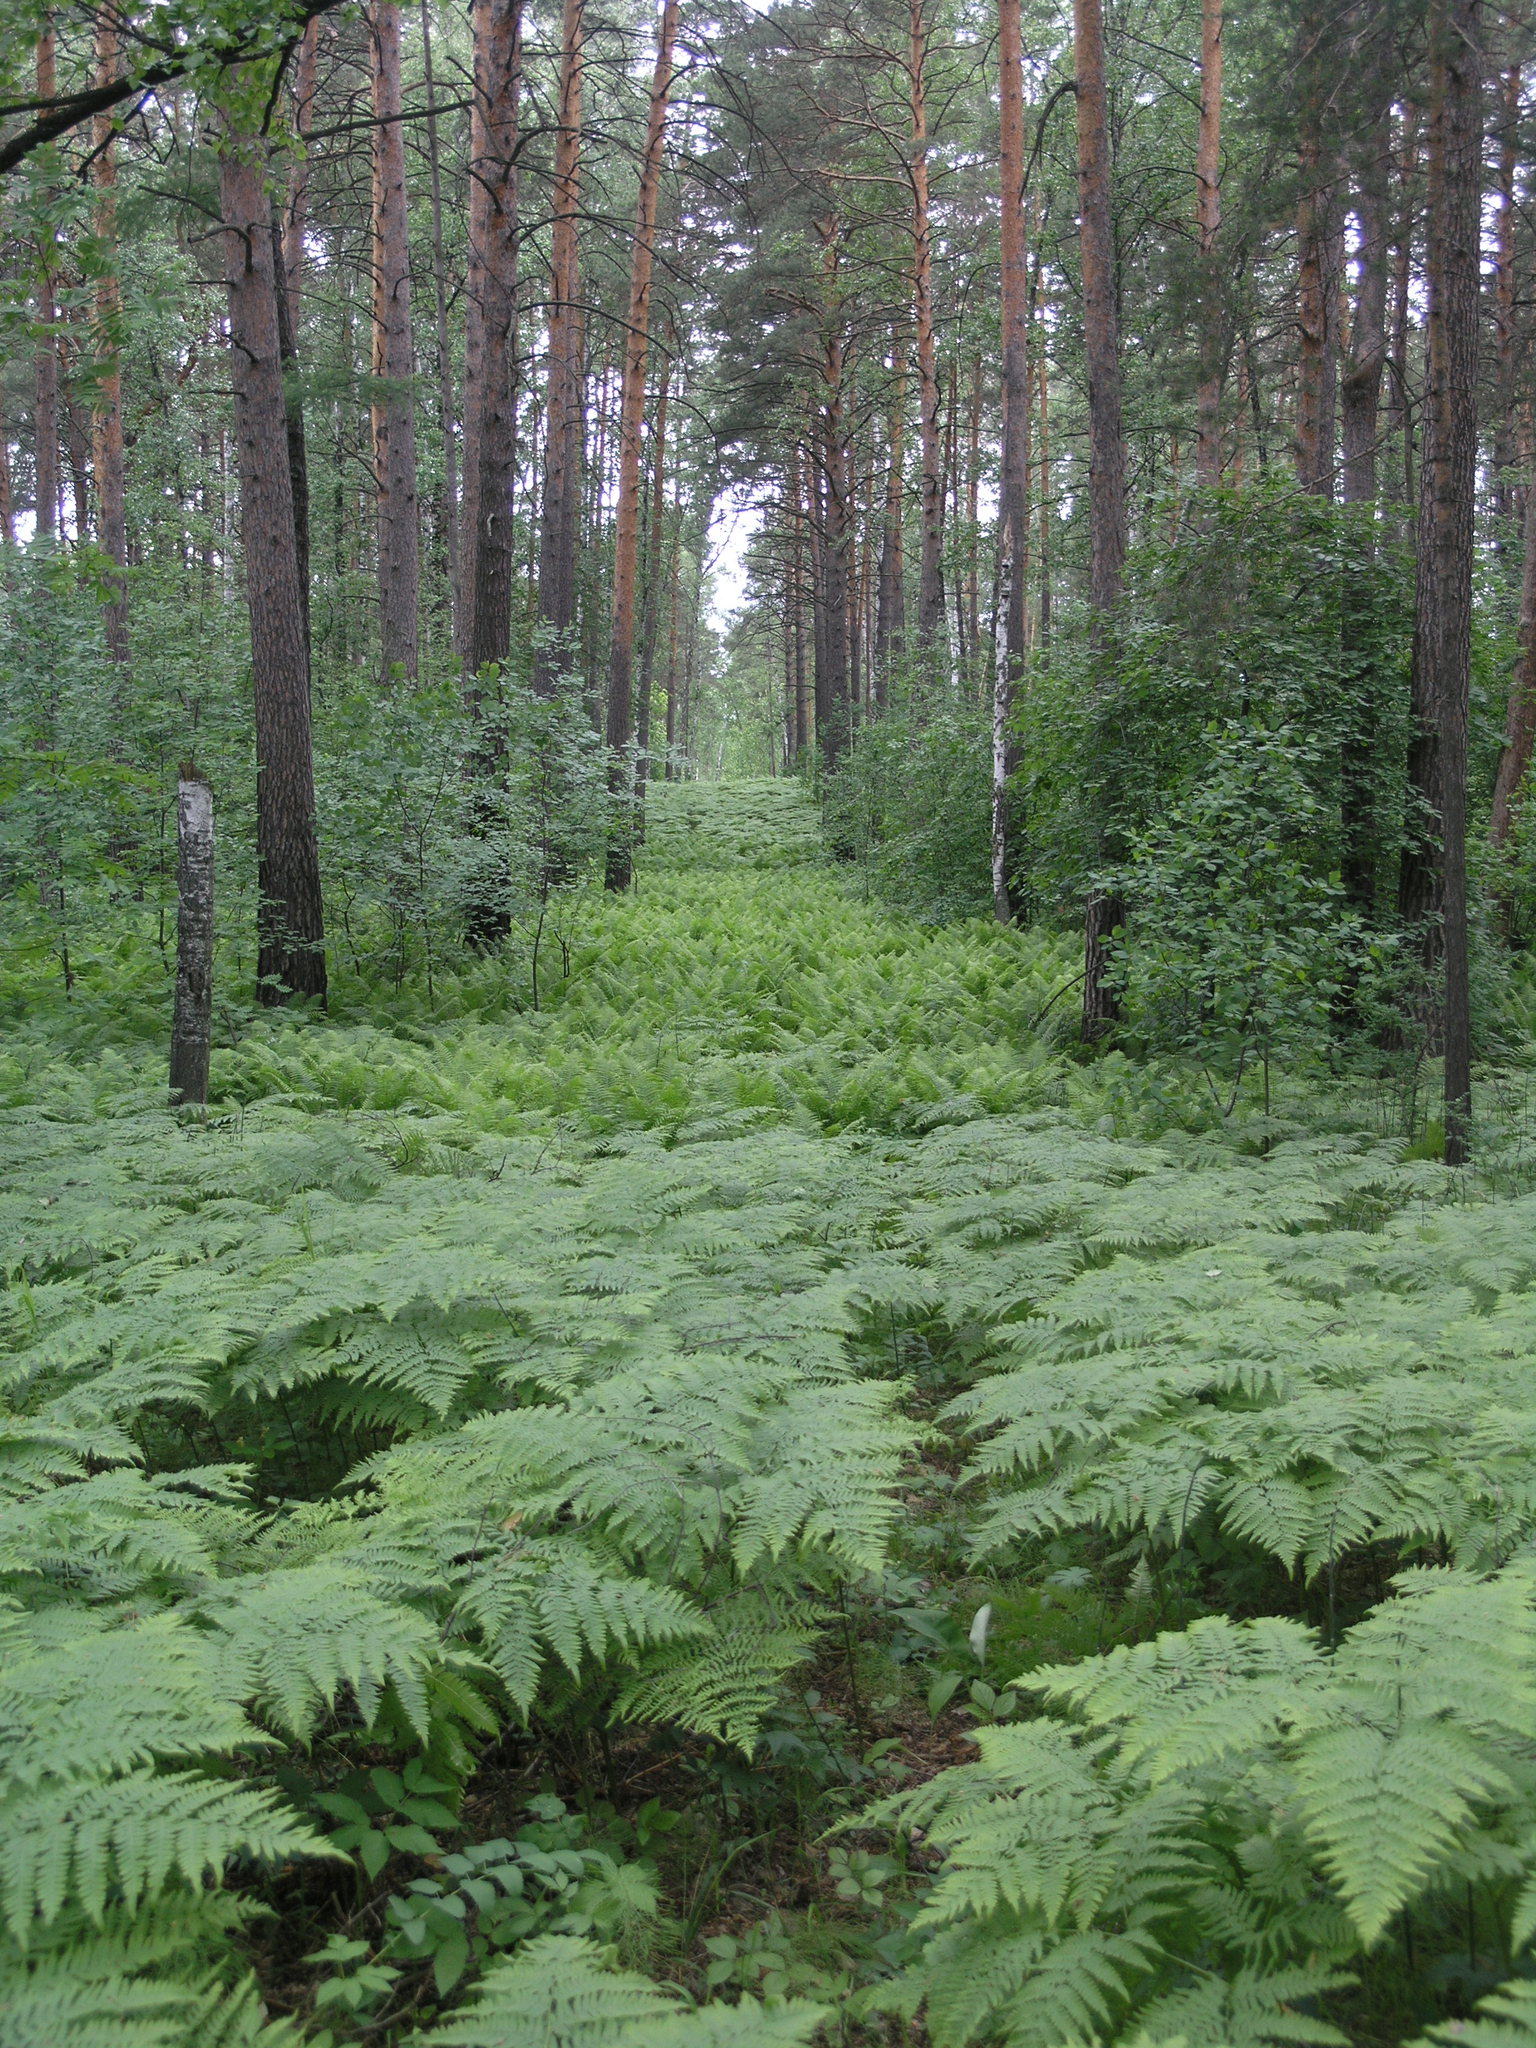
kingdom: Plantae
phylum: Tracheophyta
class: Polypodiopsida
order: Polypodiales
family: Dennstaedtiaceae
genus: Pteridium
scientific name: Pteridium aquilinum
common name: Bracken
